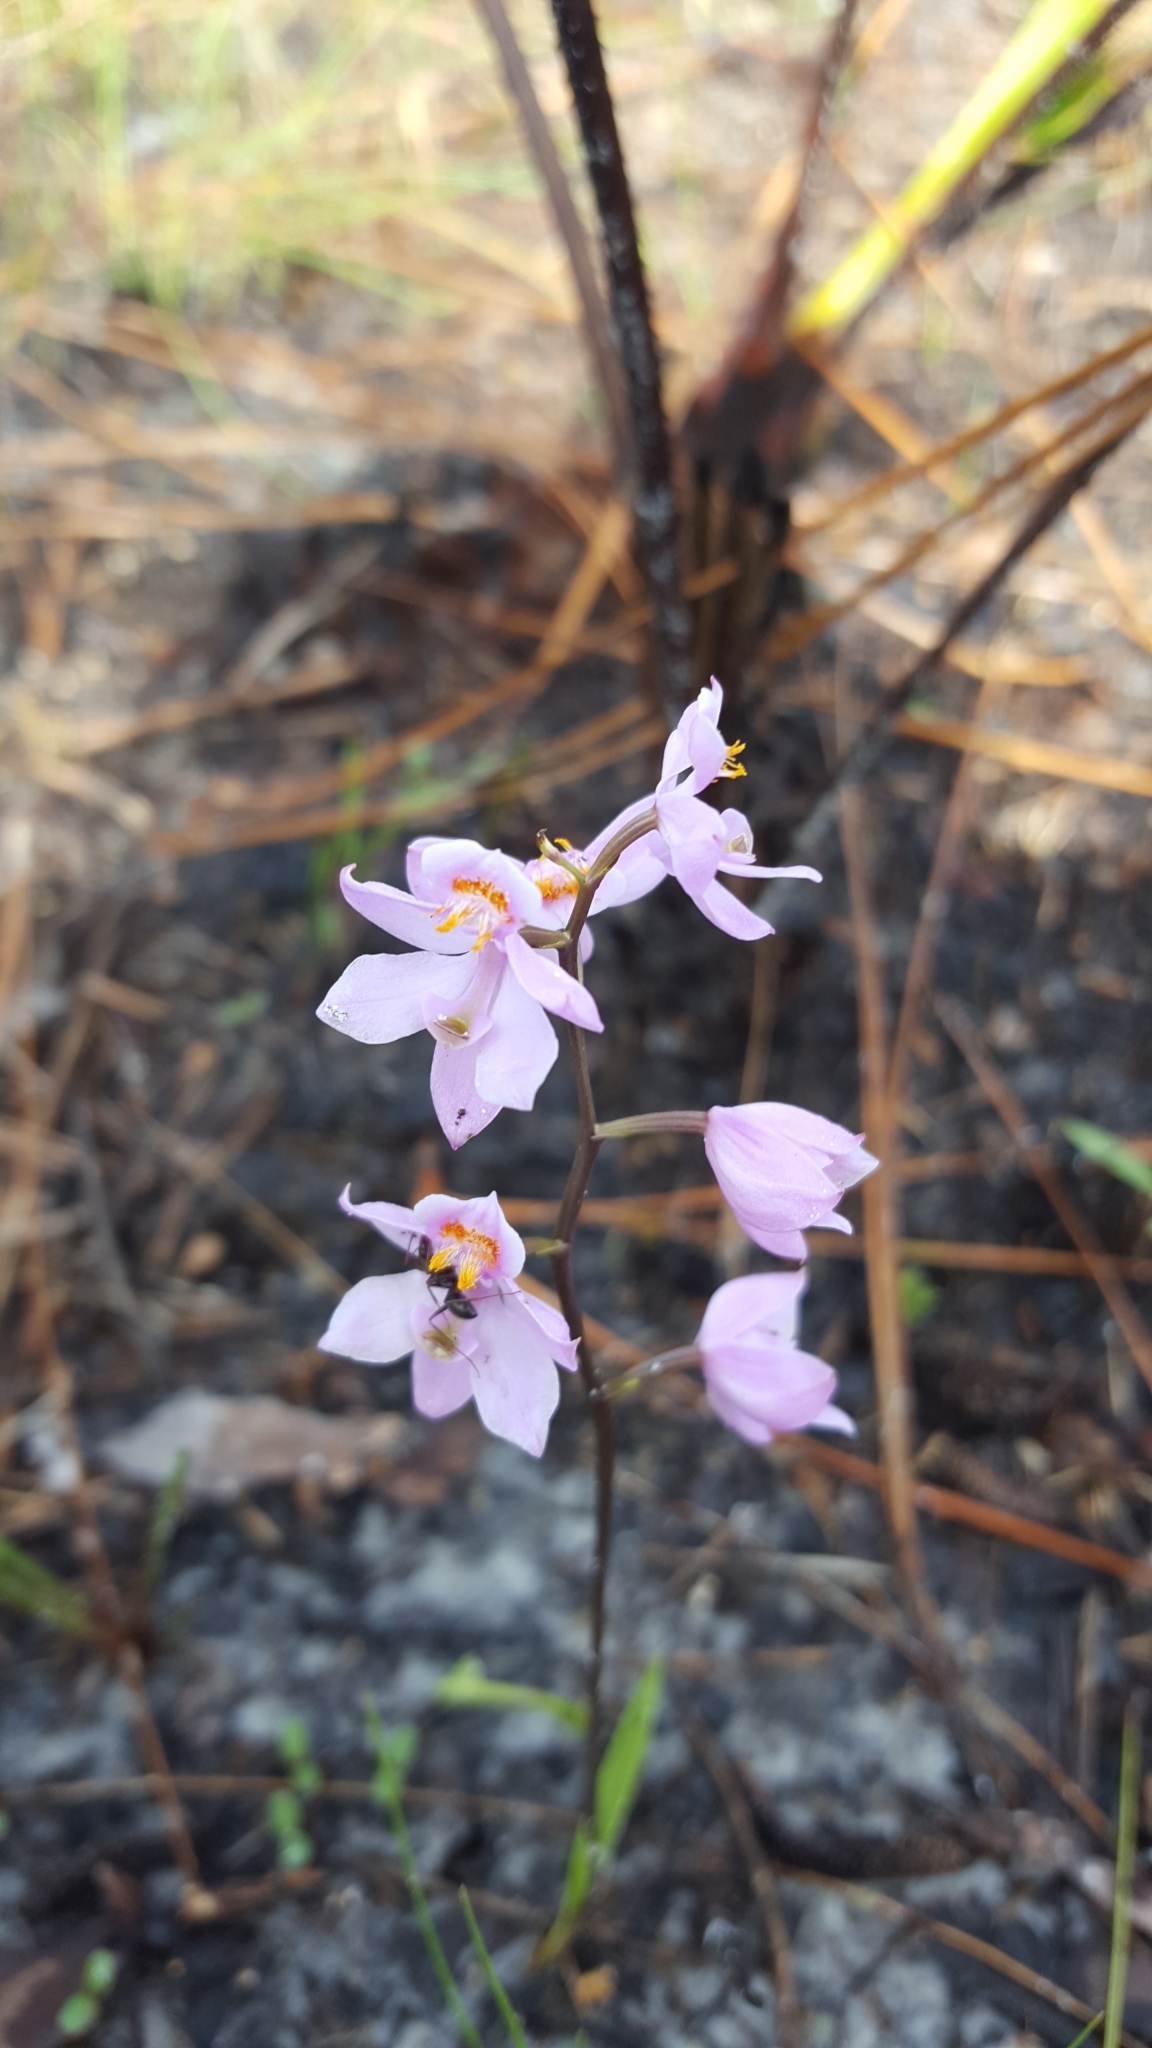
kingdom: Plantae
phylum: Tracheophyta
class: Liliopsida
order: Asparagales
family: Orchidaceae
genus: Calopogon
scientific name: Calopogon multiflorus
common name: Many-flowered grass-pink orchid
